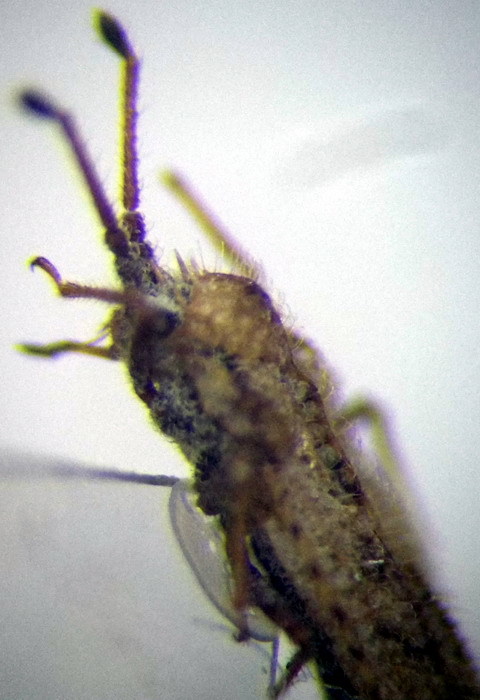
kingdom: Animalia
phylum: Arthropoda
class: Insecta
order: Hemiptera
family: Tingidae
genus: Lasiacantha
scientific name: Lasiacantha capucina
